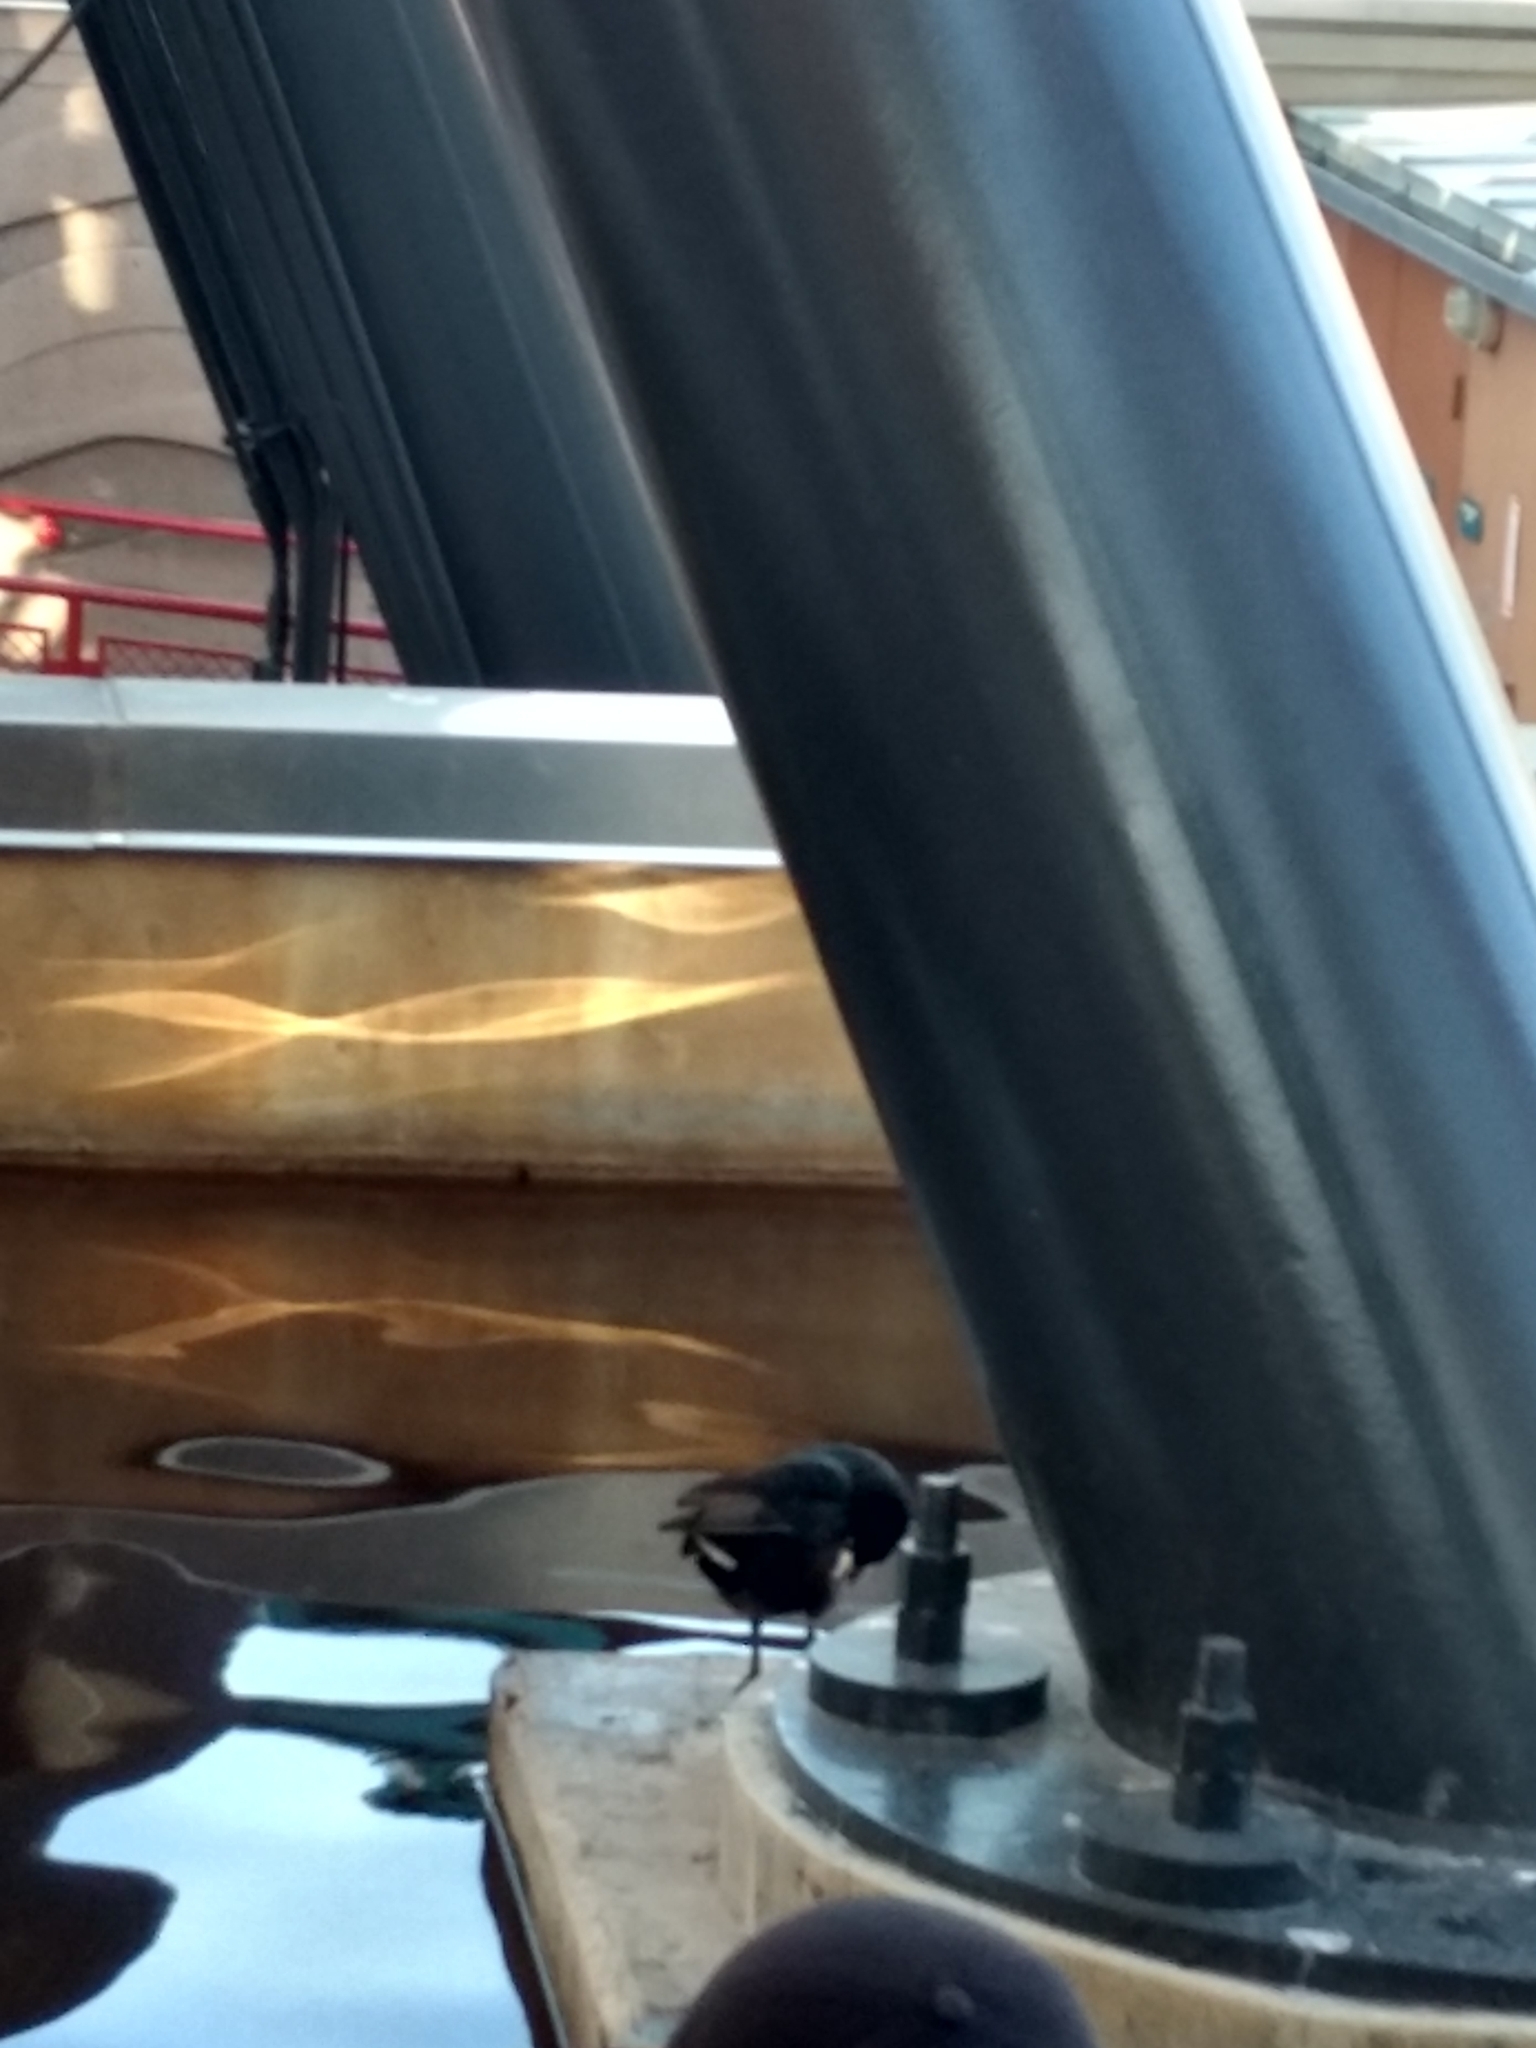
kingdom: Animalia
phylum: Chordata
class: Aves
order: Gruiformes
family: Rallidae
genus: Fulica
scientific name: Fulica americana
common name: American coot
